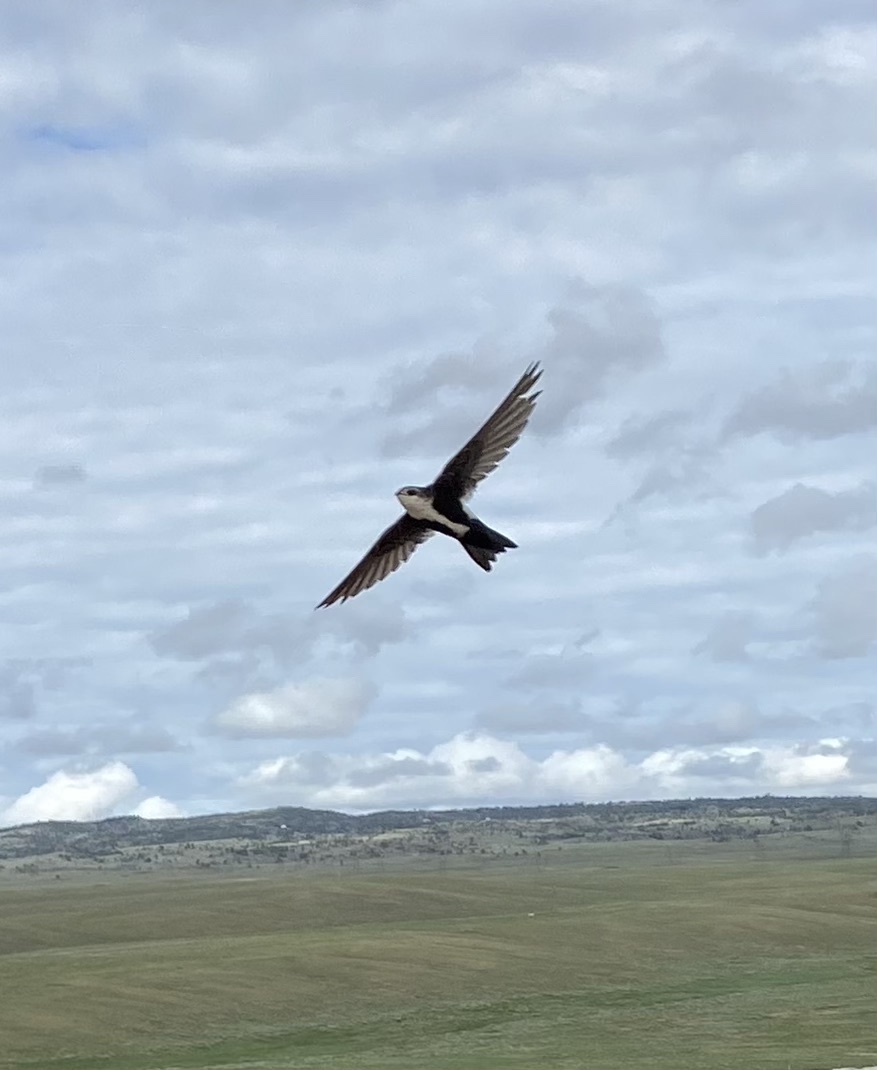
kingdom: Animalia
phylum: Chordata
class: Aves
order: Apodiformes
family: Apodidae
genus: Aeronautes
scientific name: Aeronautes saxatalis
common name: White-throated swift
